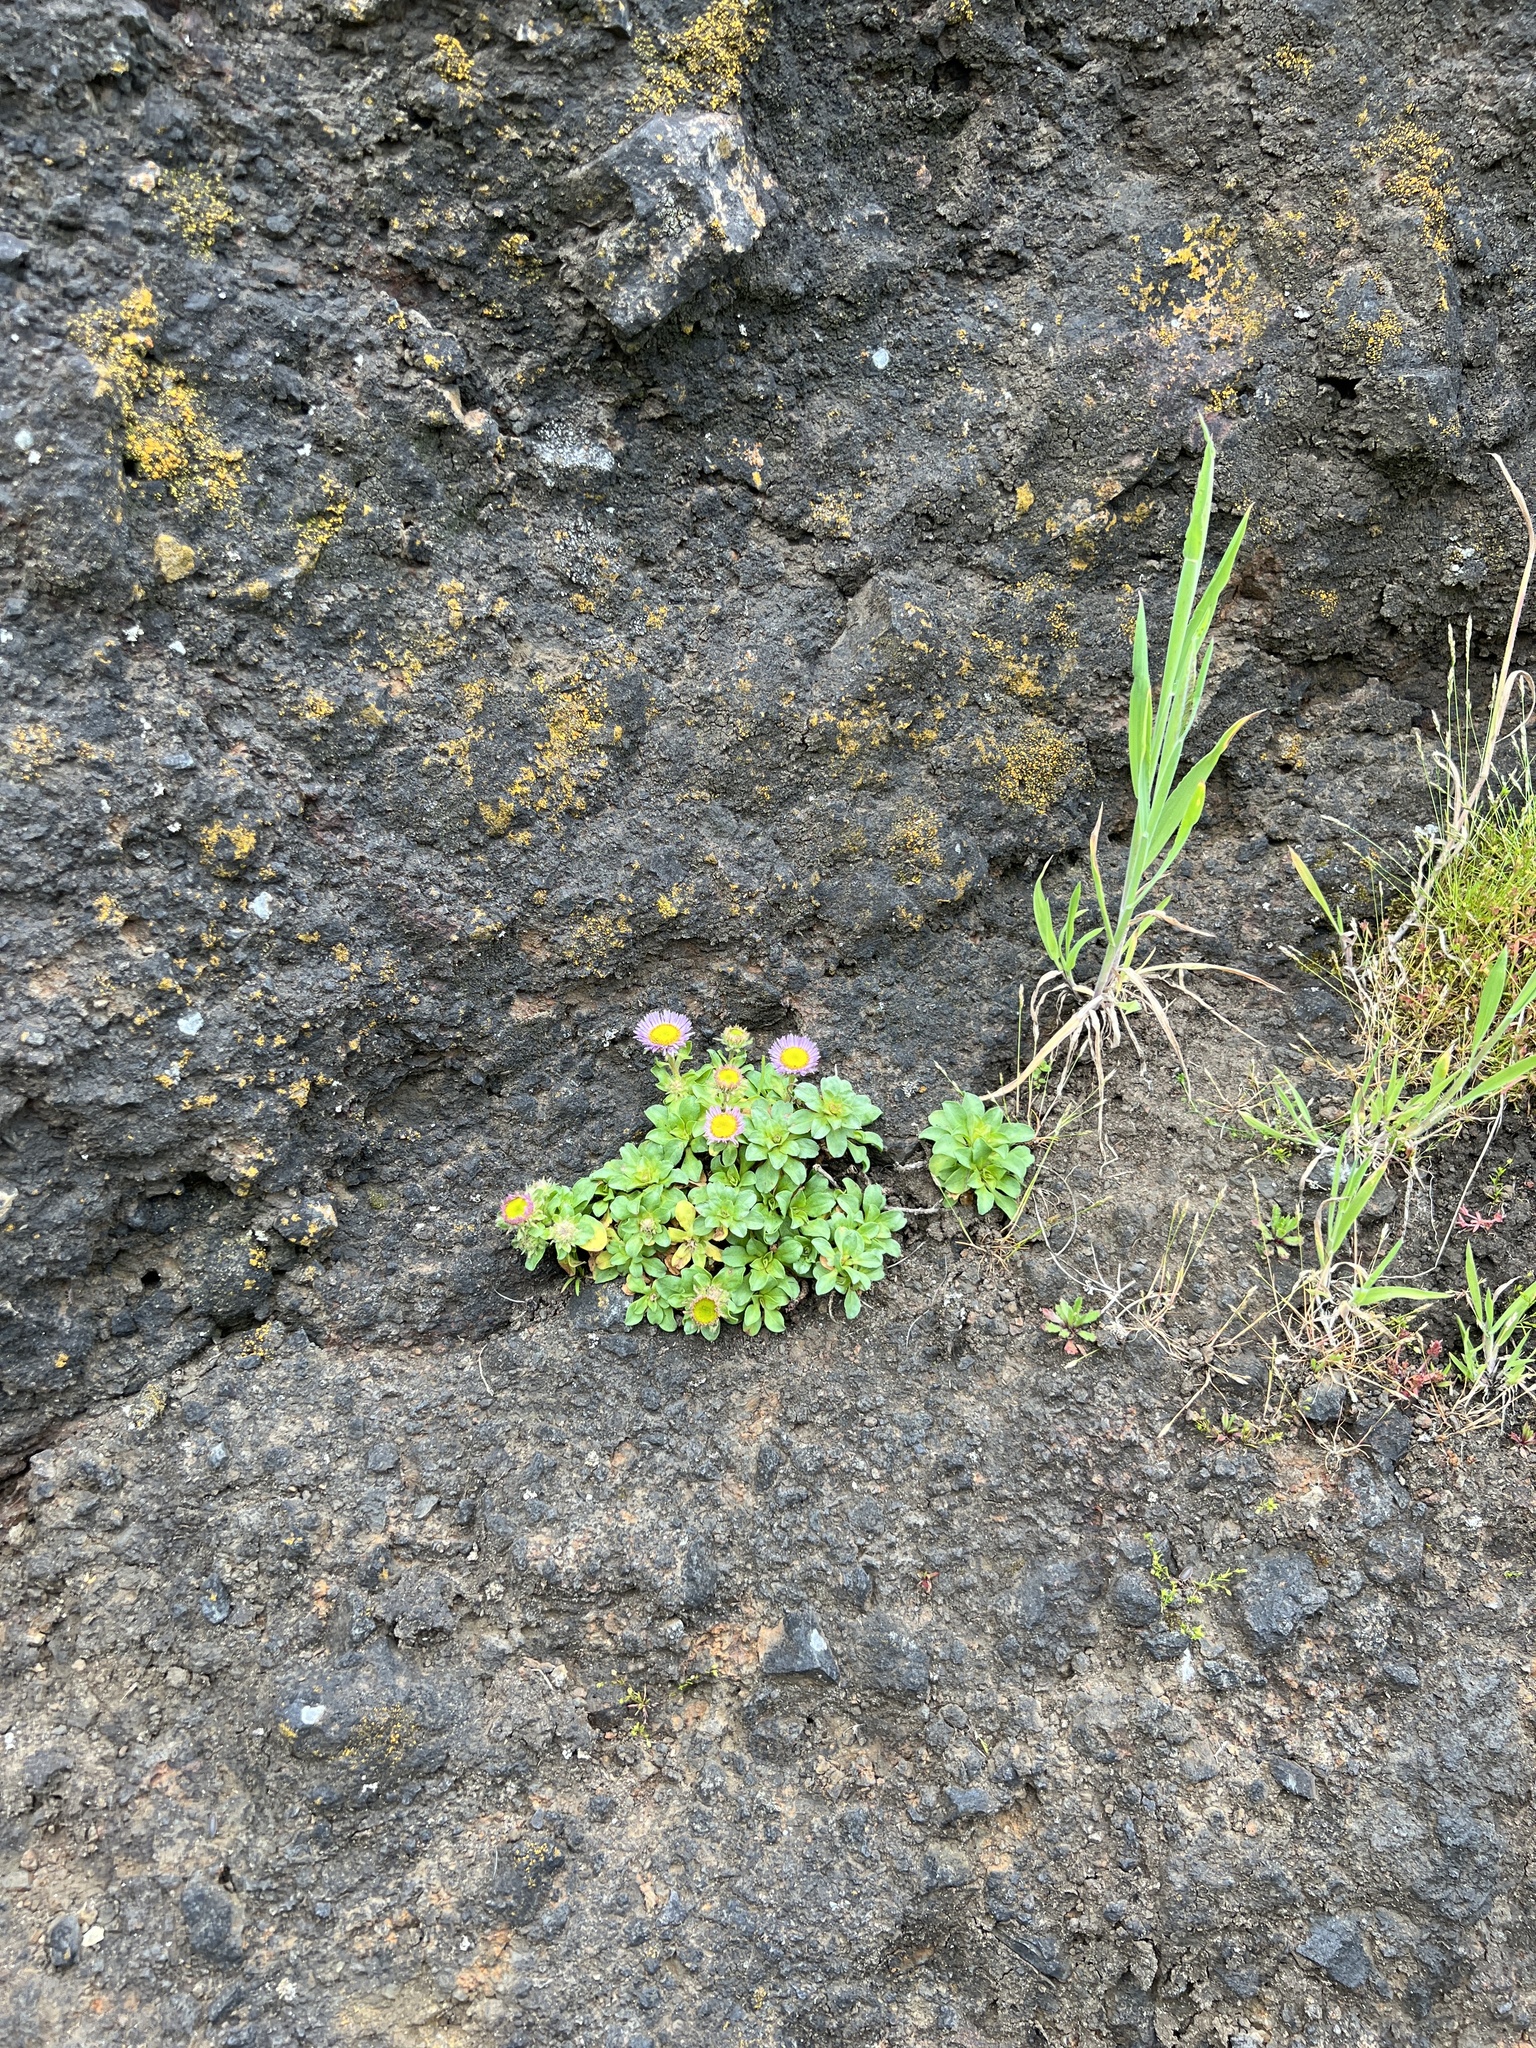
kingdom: Plantae
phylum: Tracheophyta
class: Magnoliopsida
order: Asterales
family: Asteraceae
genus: Erigeron
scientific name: Erigeron glaucus
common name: Seaside daisy
